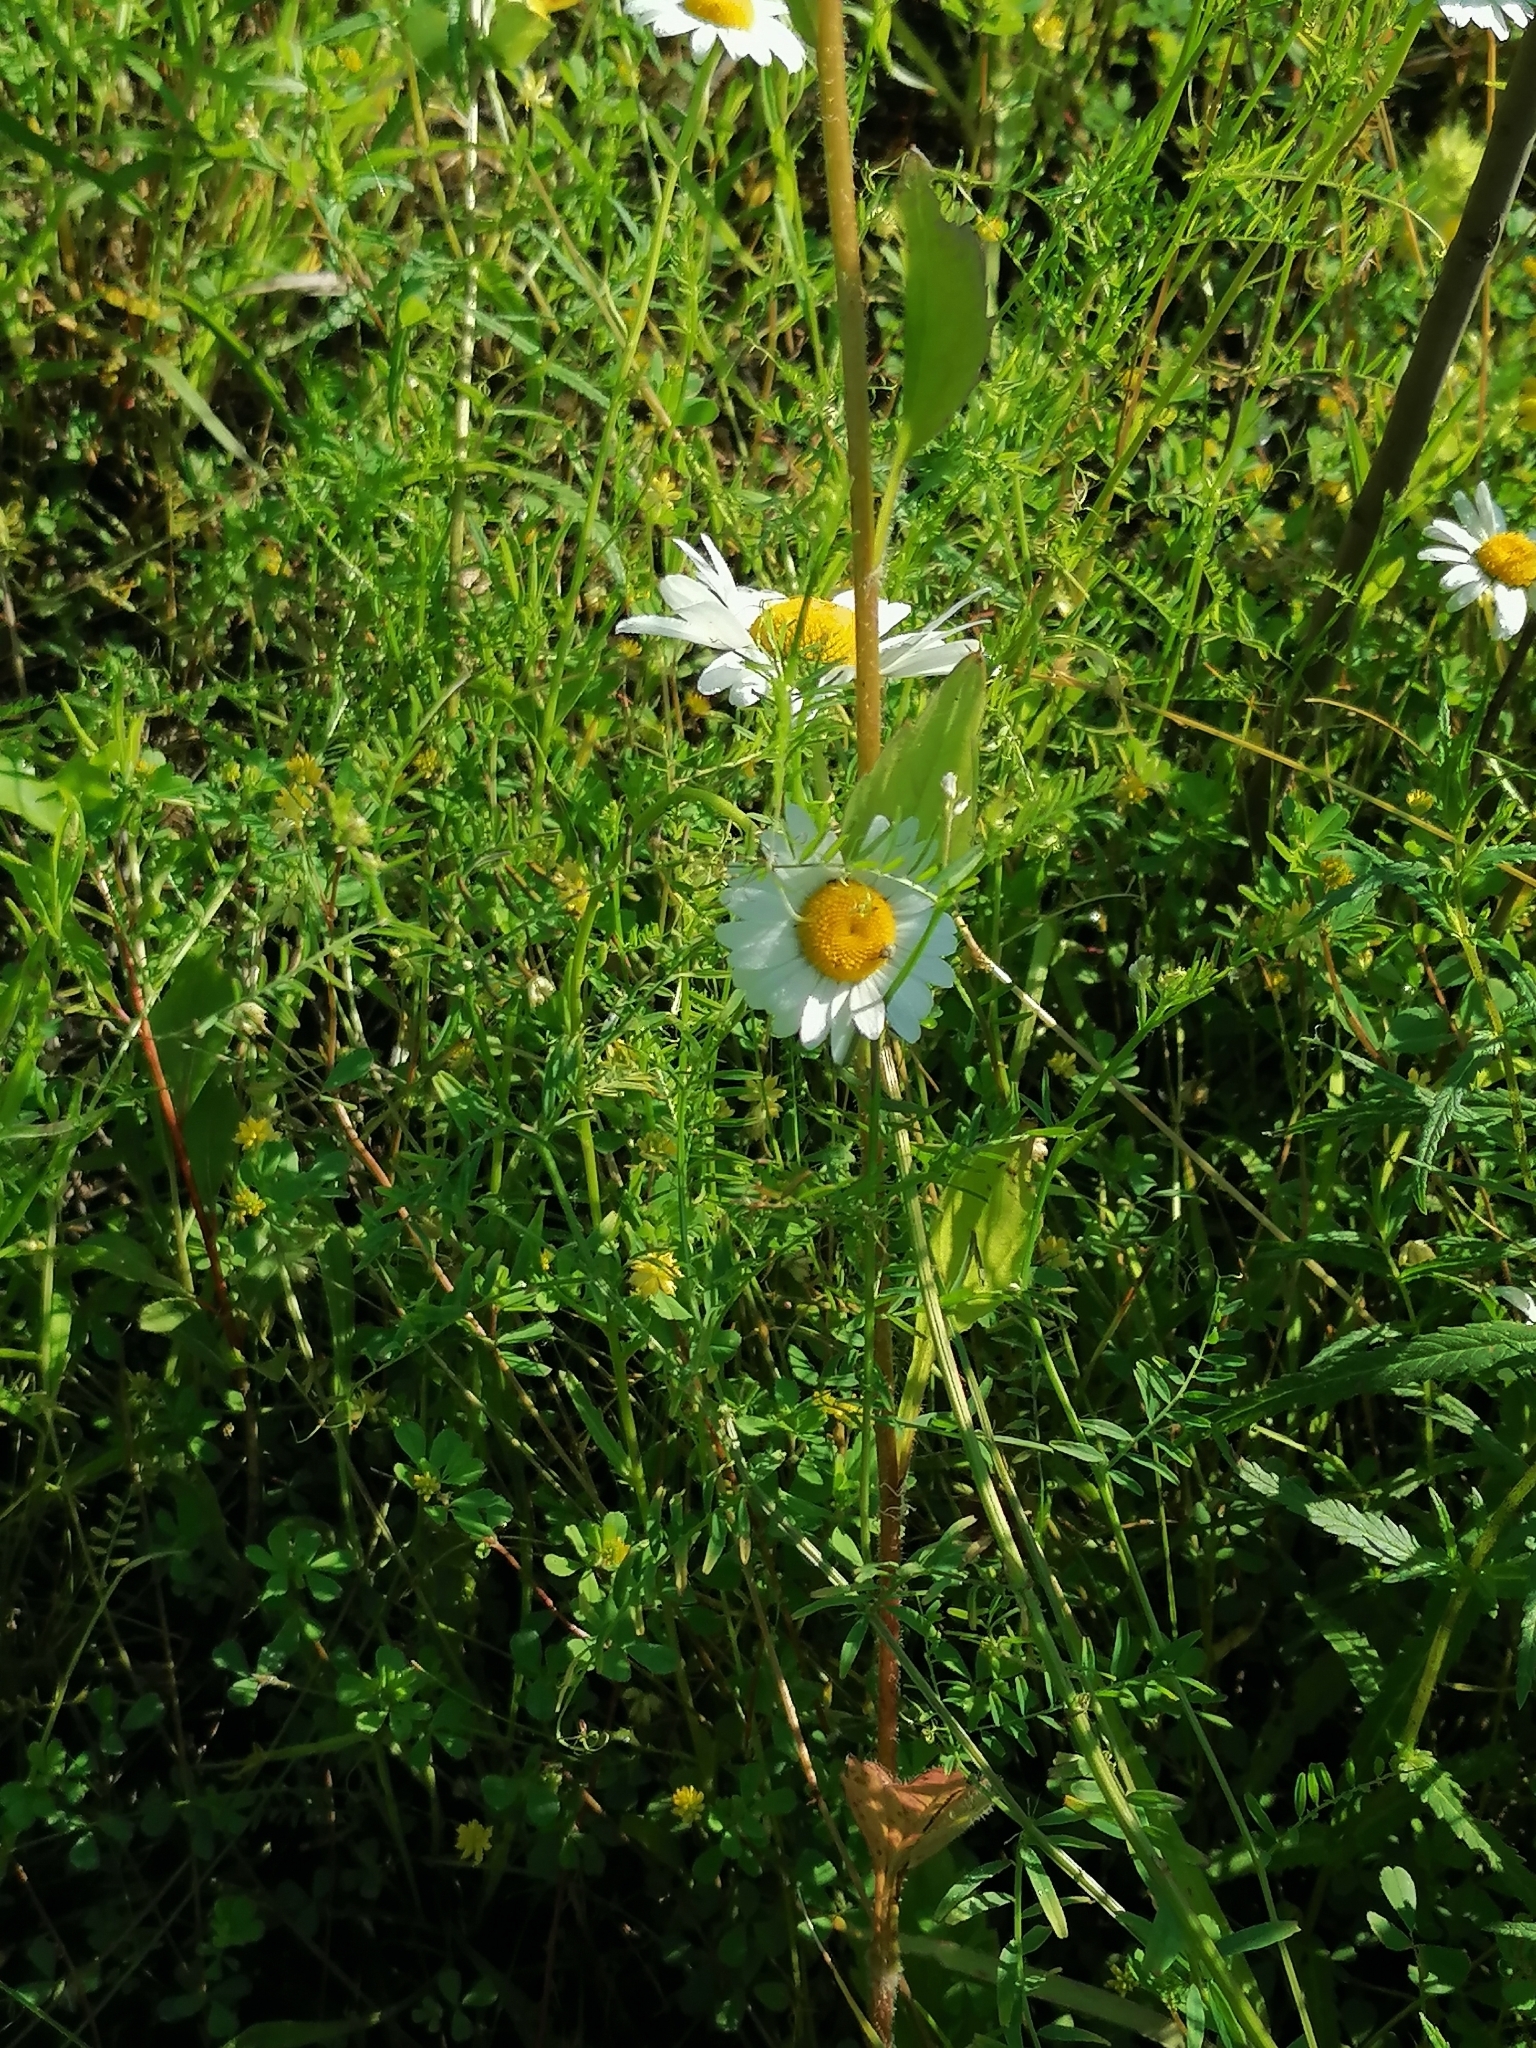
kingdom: Plantae
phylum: Tracheophyta
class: Magnoliopsida
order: Asterales
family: Asteraceae
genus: Leucanthemum
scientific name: Leucanthemum vulgare
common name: Oxeye daisy
